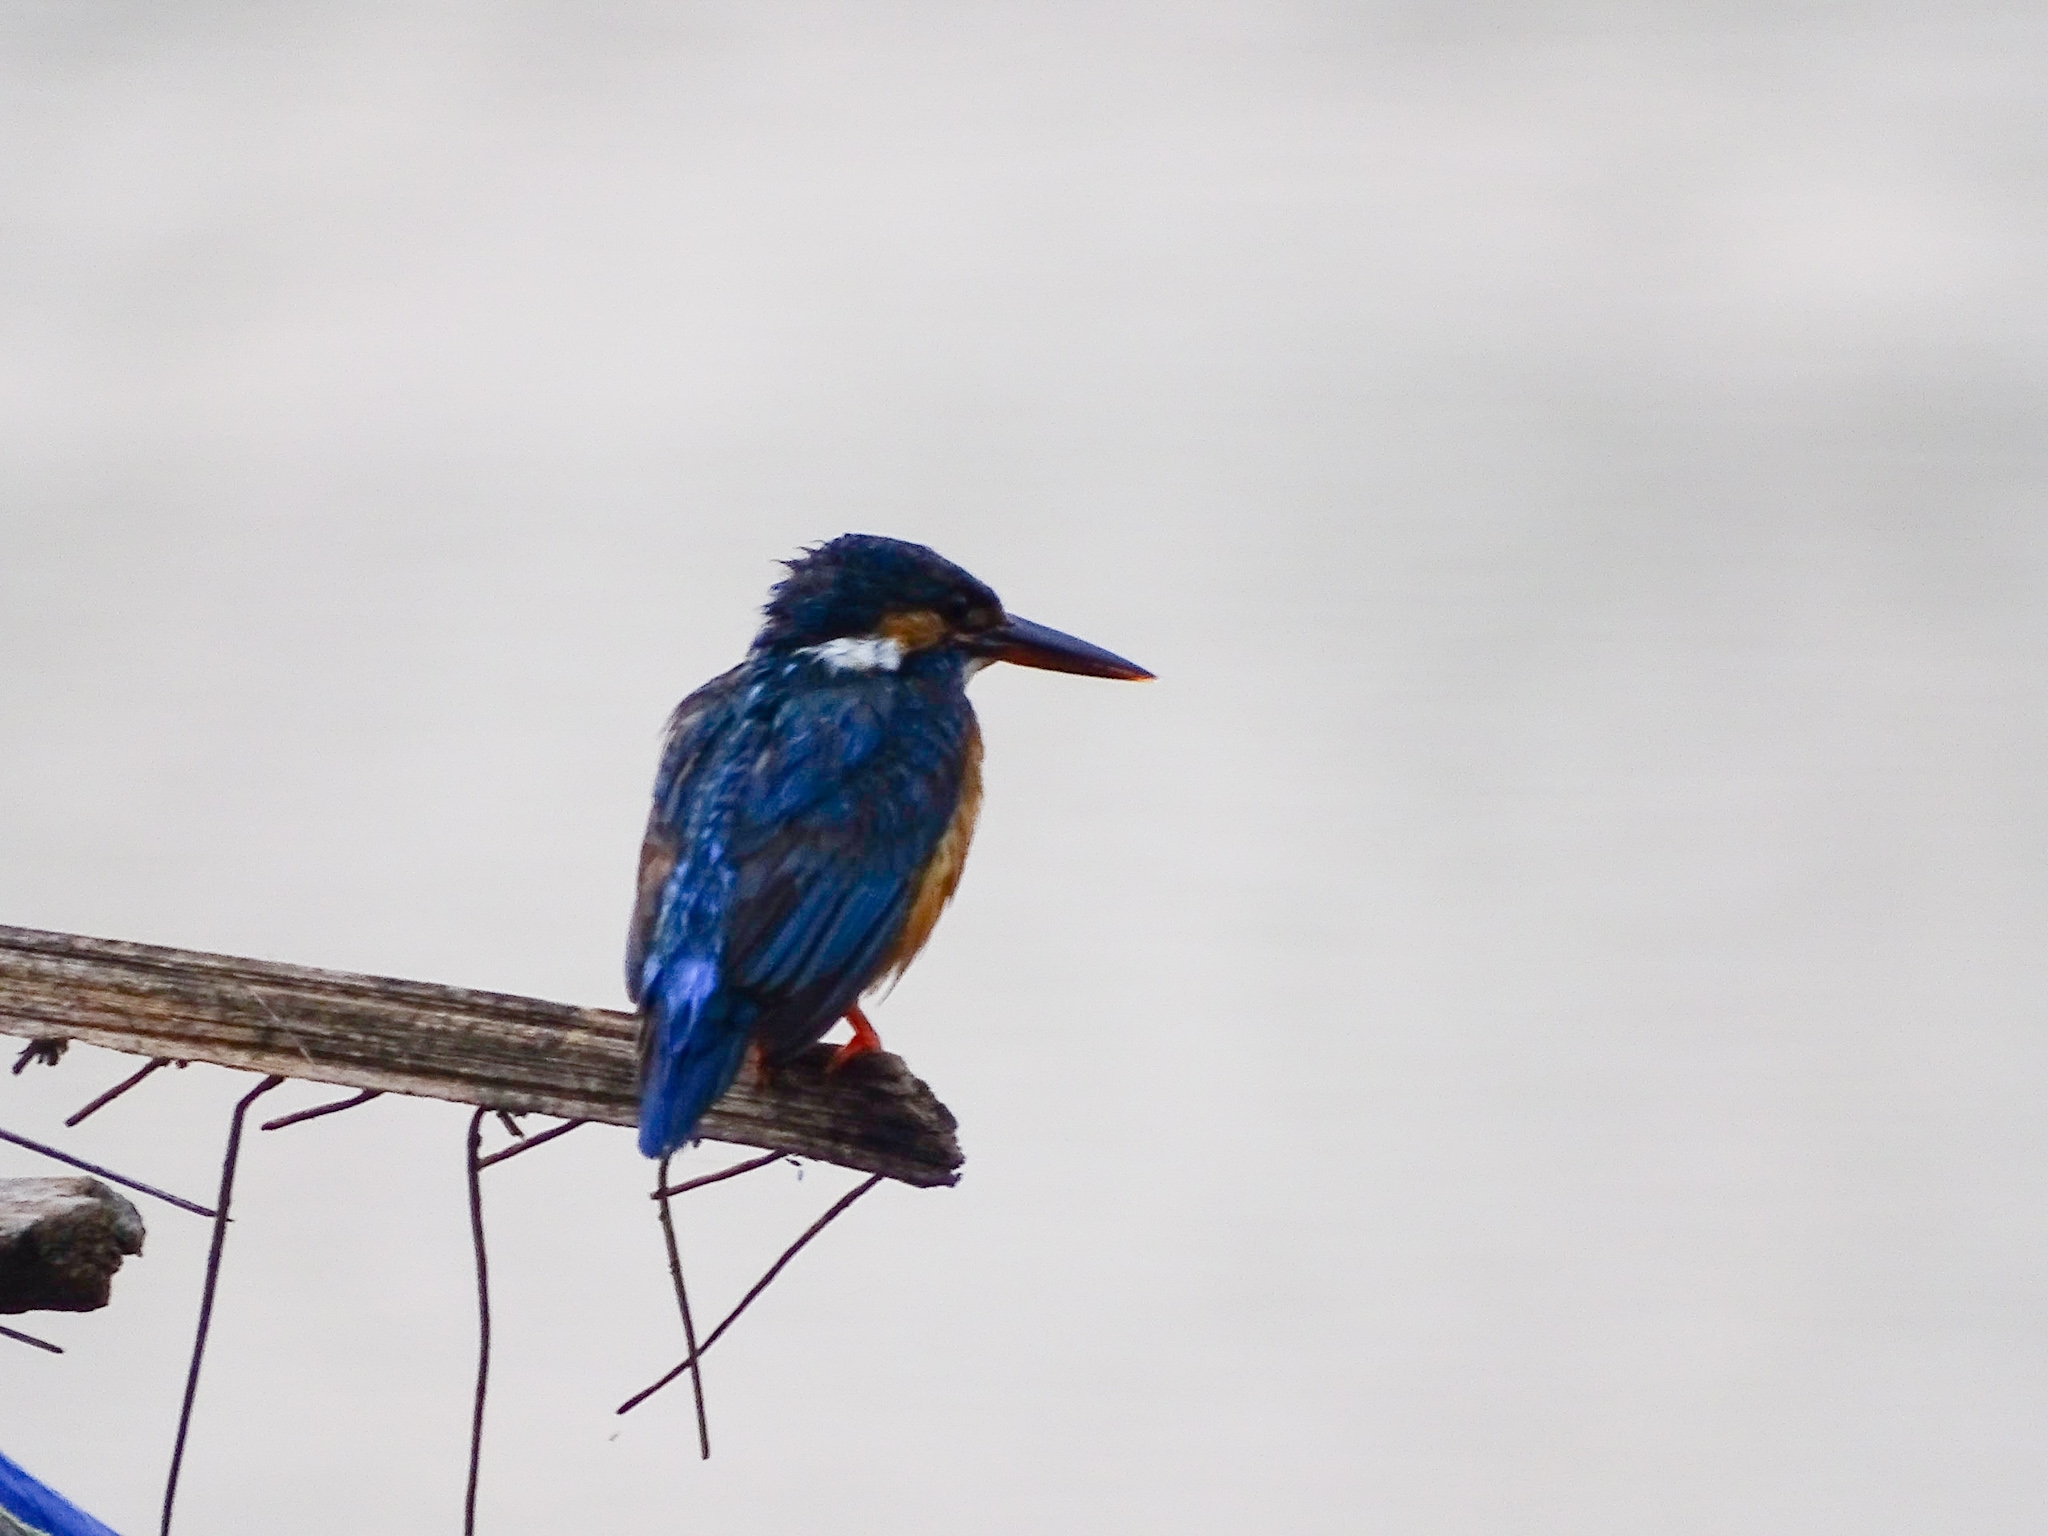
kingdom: Animalia
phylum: Chordata
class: Aves
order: Coraciiformes
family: Alcedinidae
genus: Alcedo
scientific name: Alcedo atthis
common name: Common kingfisher
